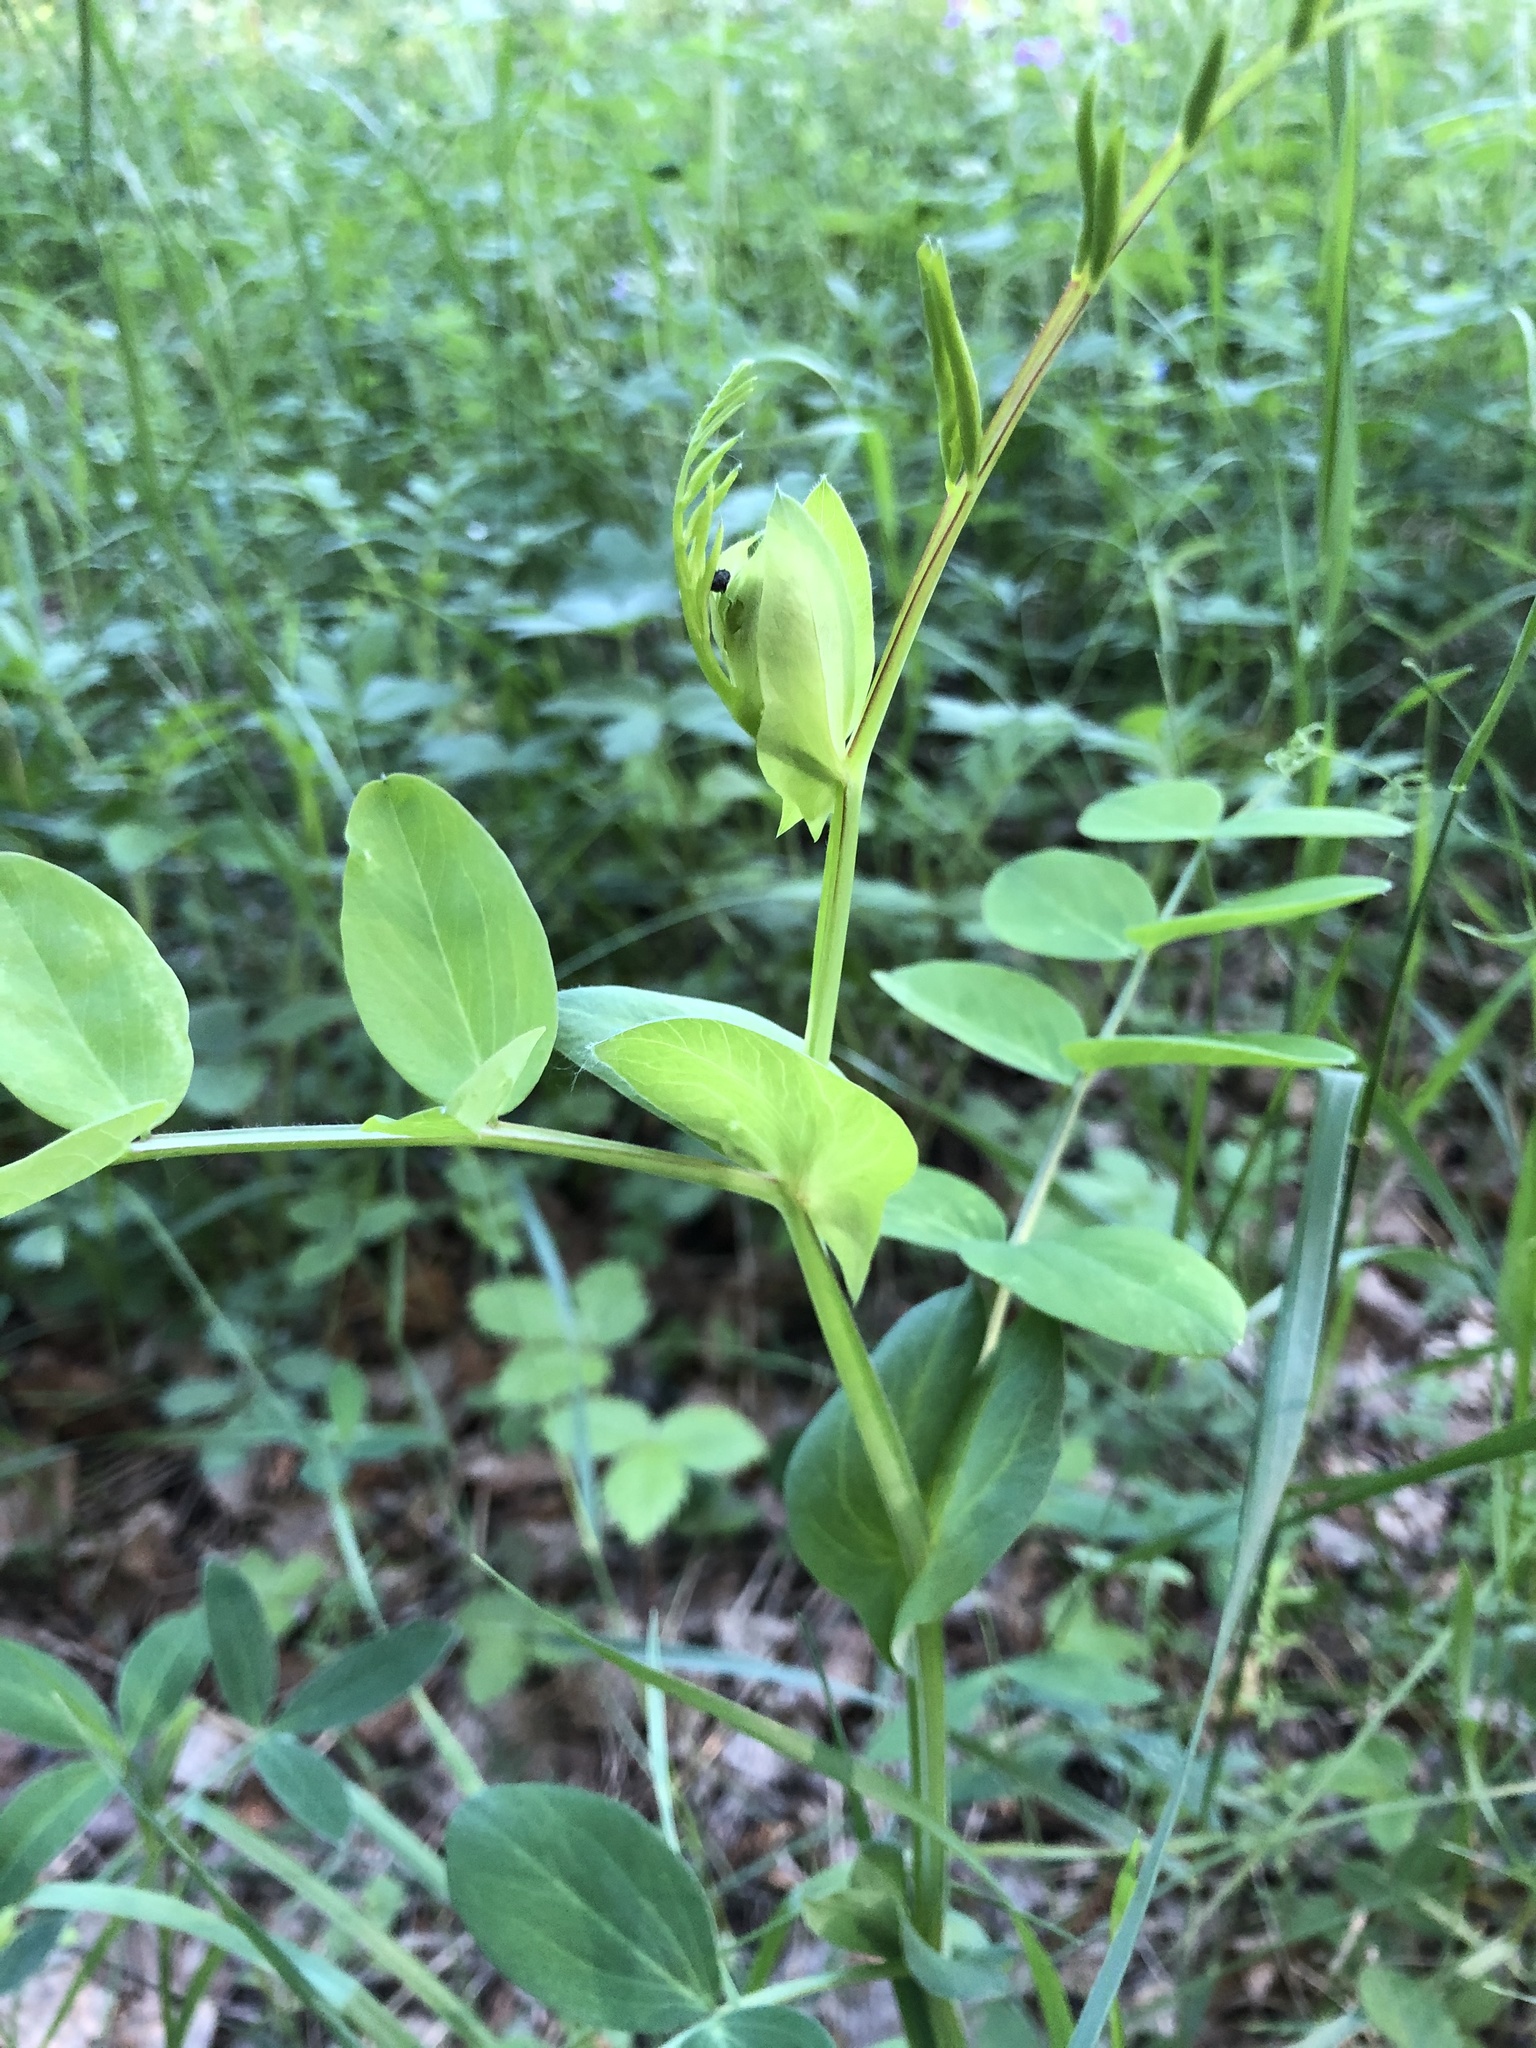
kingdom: Plantae
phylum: Tracheophyta
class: Magnoliopsida
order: Fabales
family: Fabaceae
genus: Lathyrus
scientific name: Lathyrus pisiformis
